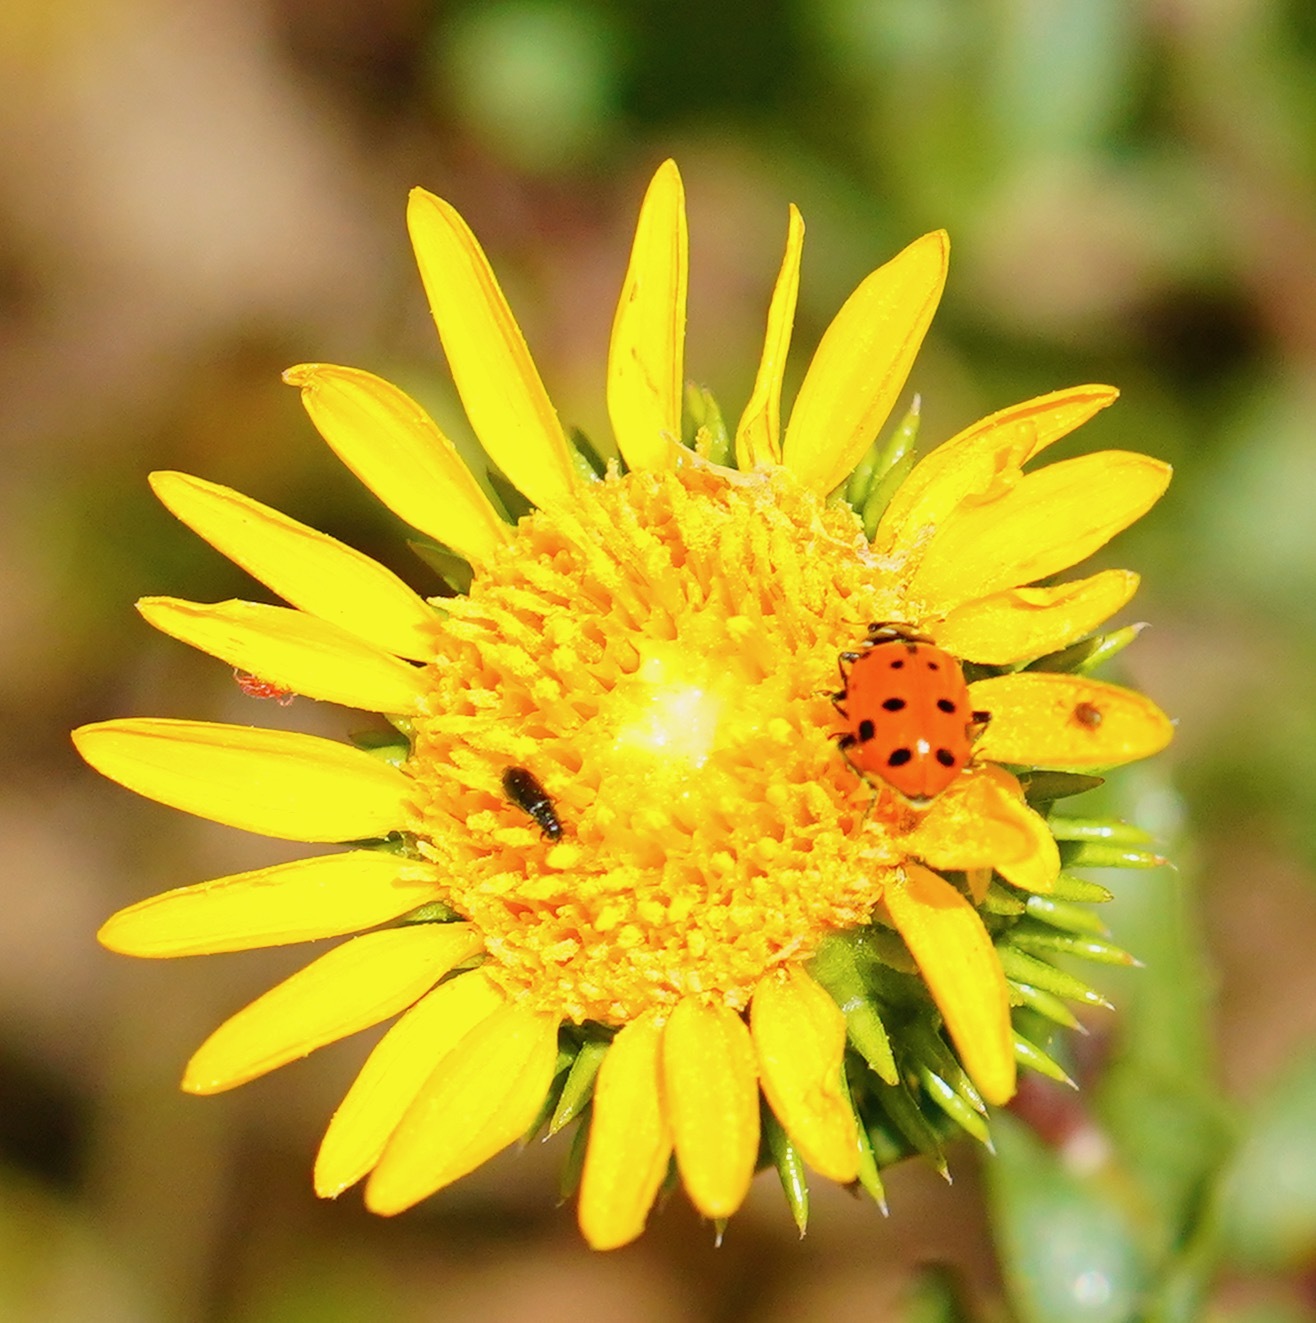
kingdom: Animalia
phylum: Arthropoda
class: Insecta
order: Coleoptera
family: Coccinellidae
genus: Hippodamia
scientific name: Hippodamia convergens
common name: Convergent lady beetle
